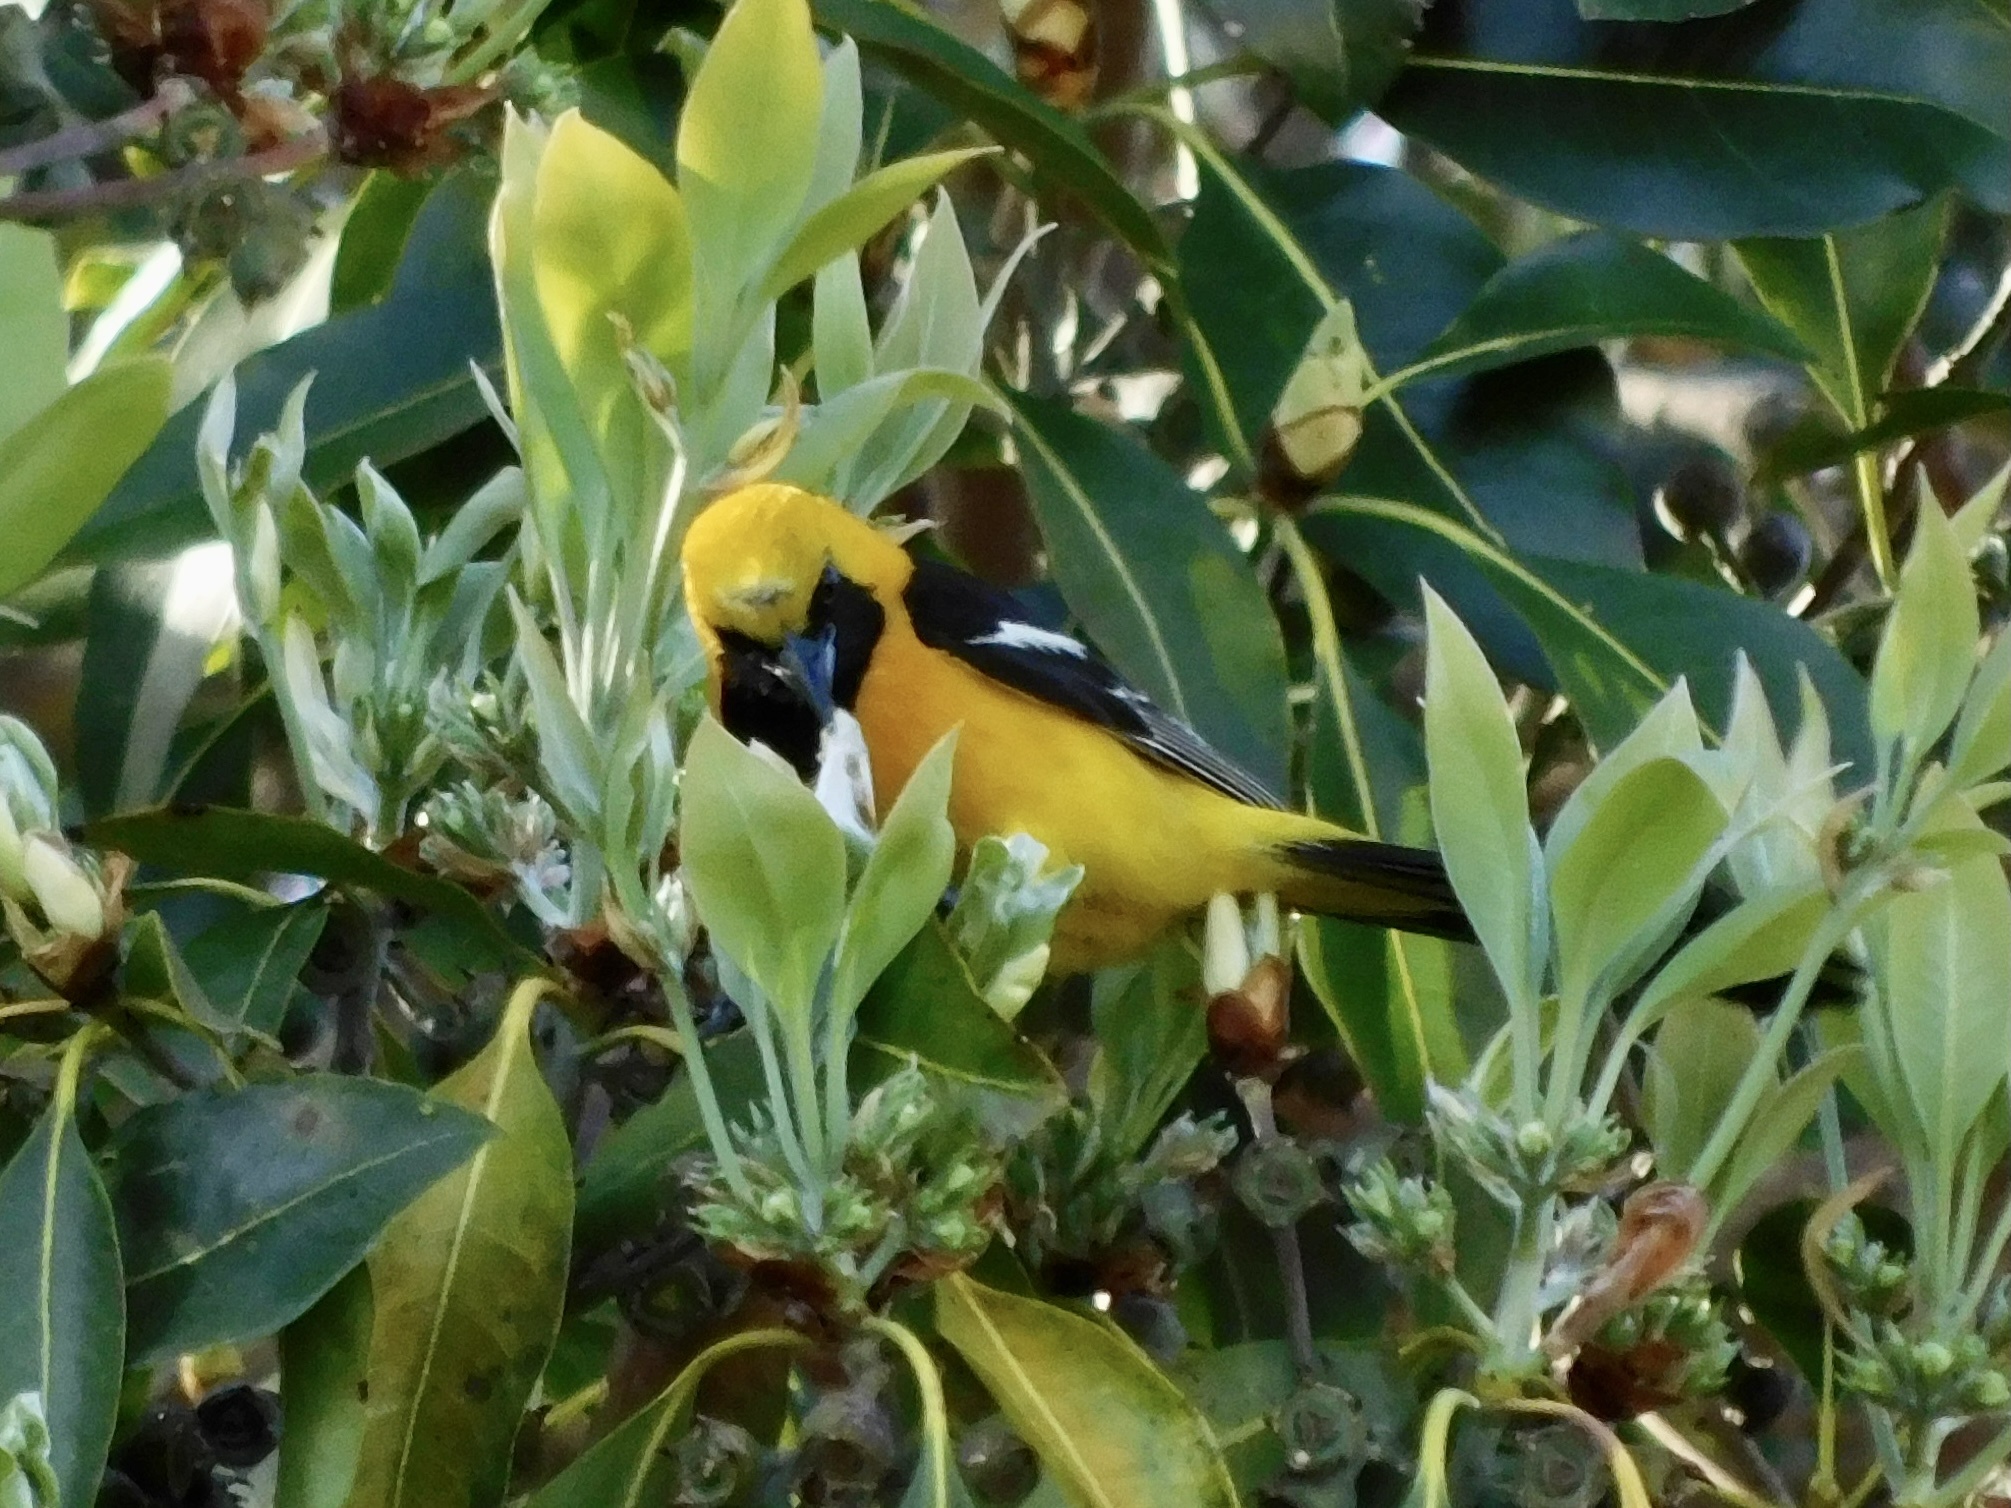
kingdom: Animalia
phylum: Chordata
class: Aves
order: Passeriformes
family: Icteridae
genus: Icterus
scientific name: Icterus cucullatus
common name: Hooded oriole
